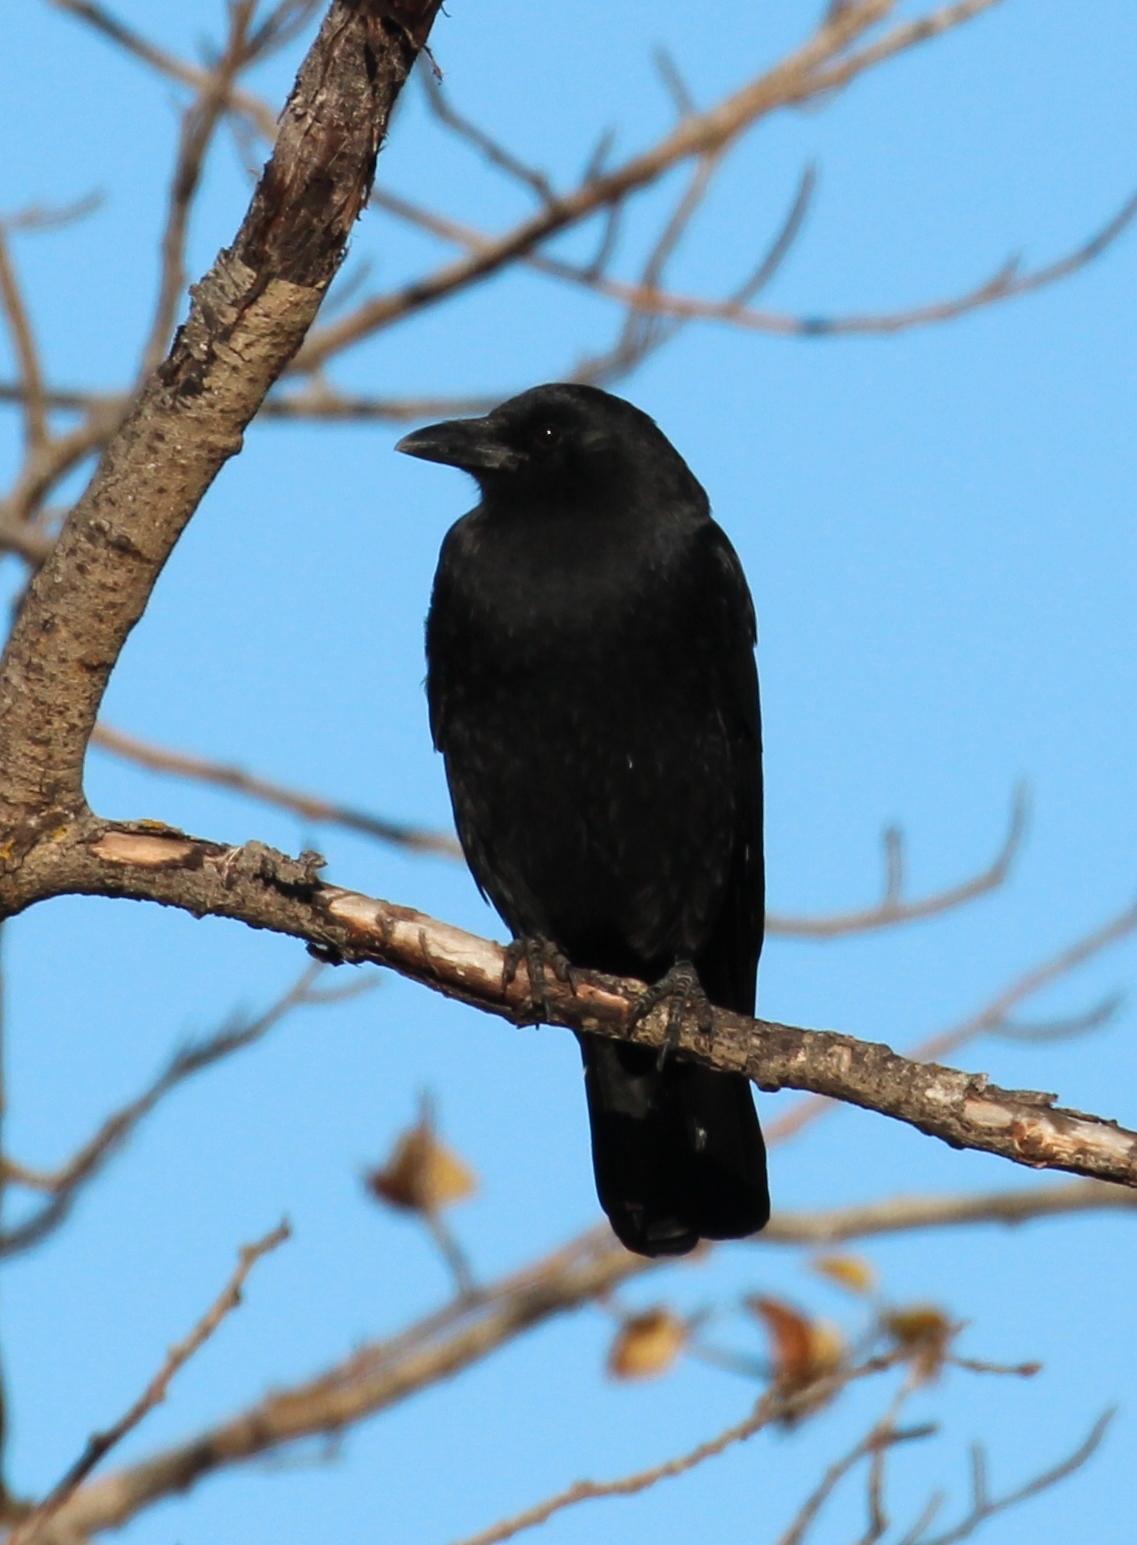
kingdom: Animalia
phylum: Chordata
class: Aves
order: Passeriformes
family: Corvidae
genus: Corvus
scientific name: Corvus brachyrhynchos
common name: American crow
